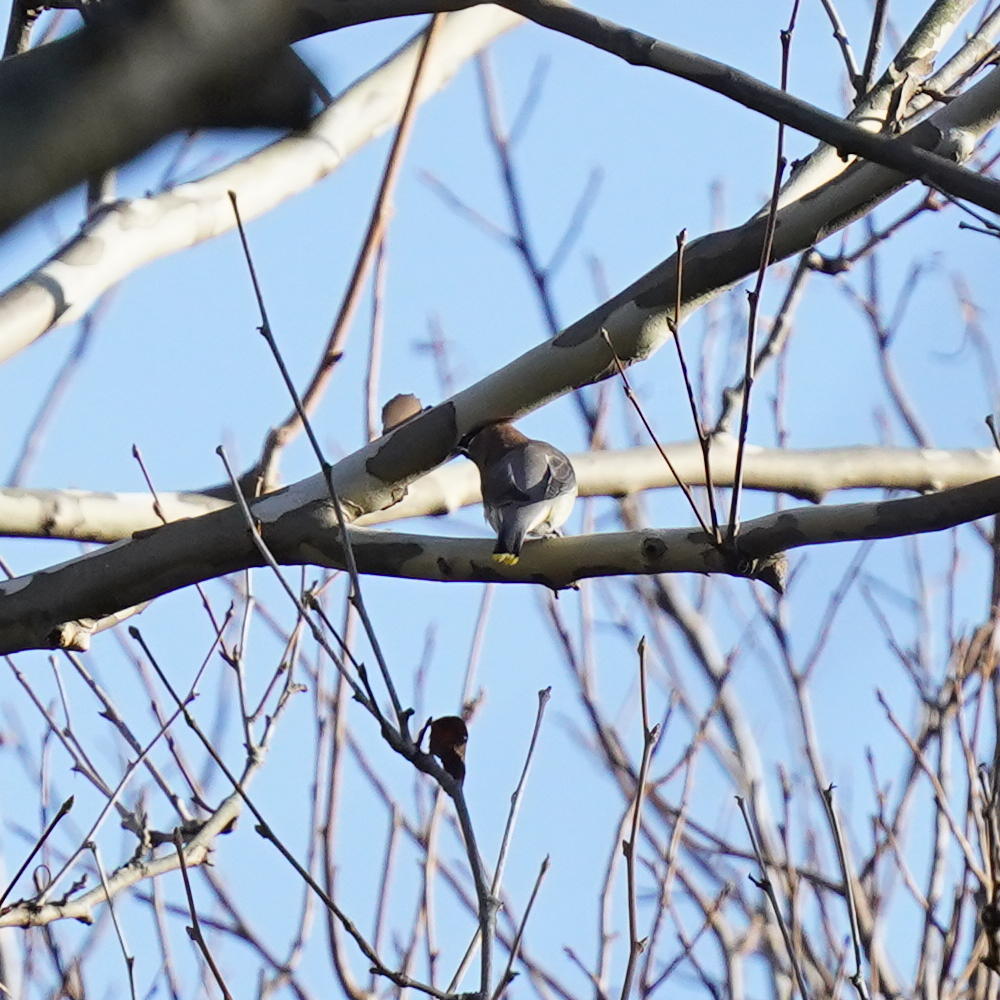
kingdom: Animalia
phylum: Chordata
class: Aves
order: Passeriformes
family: Bombycillidae
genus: Bombycilla
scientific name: Bombycilla cedrorum
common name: Cedar waxwing
